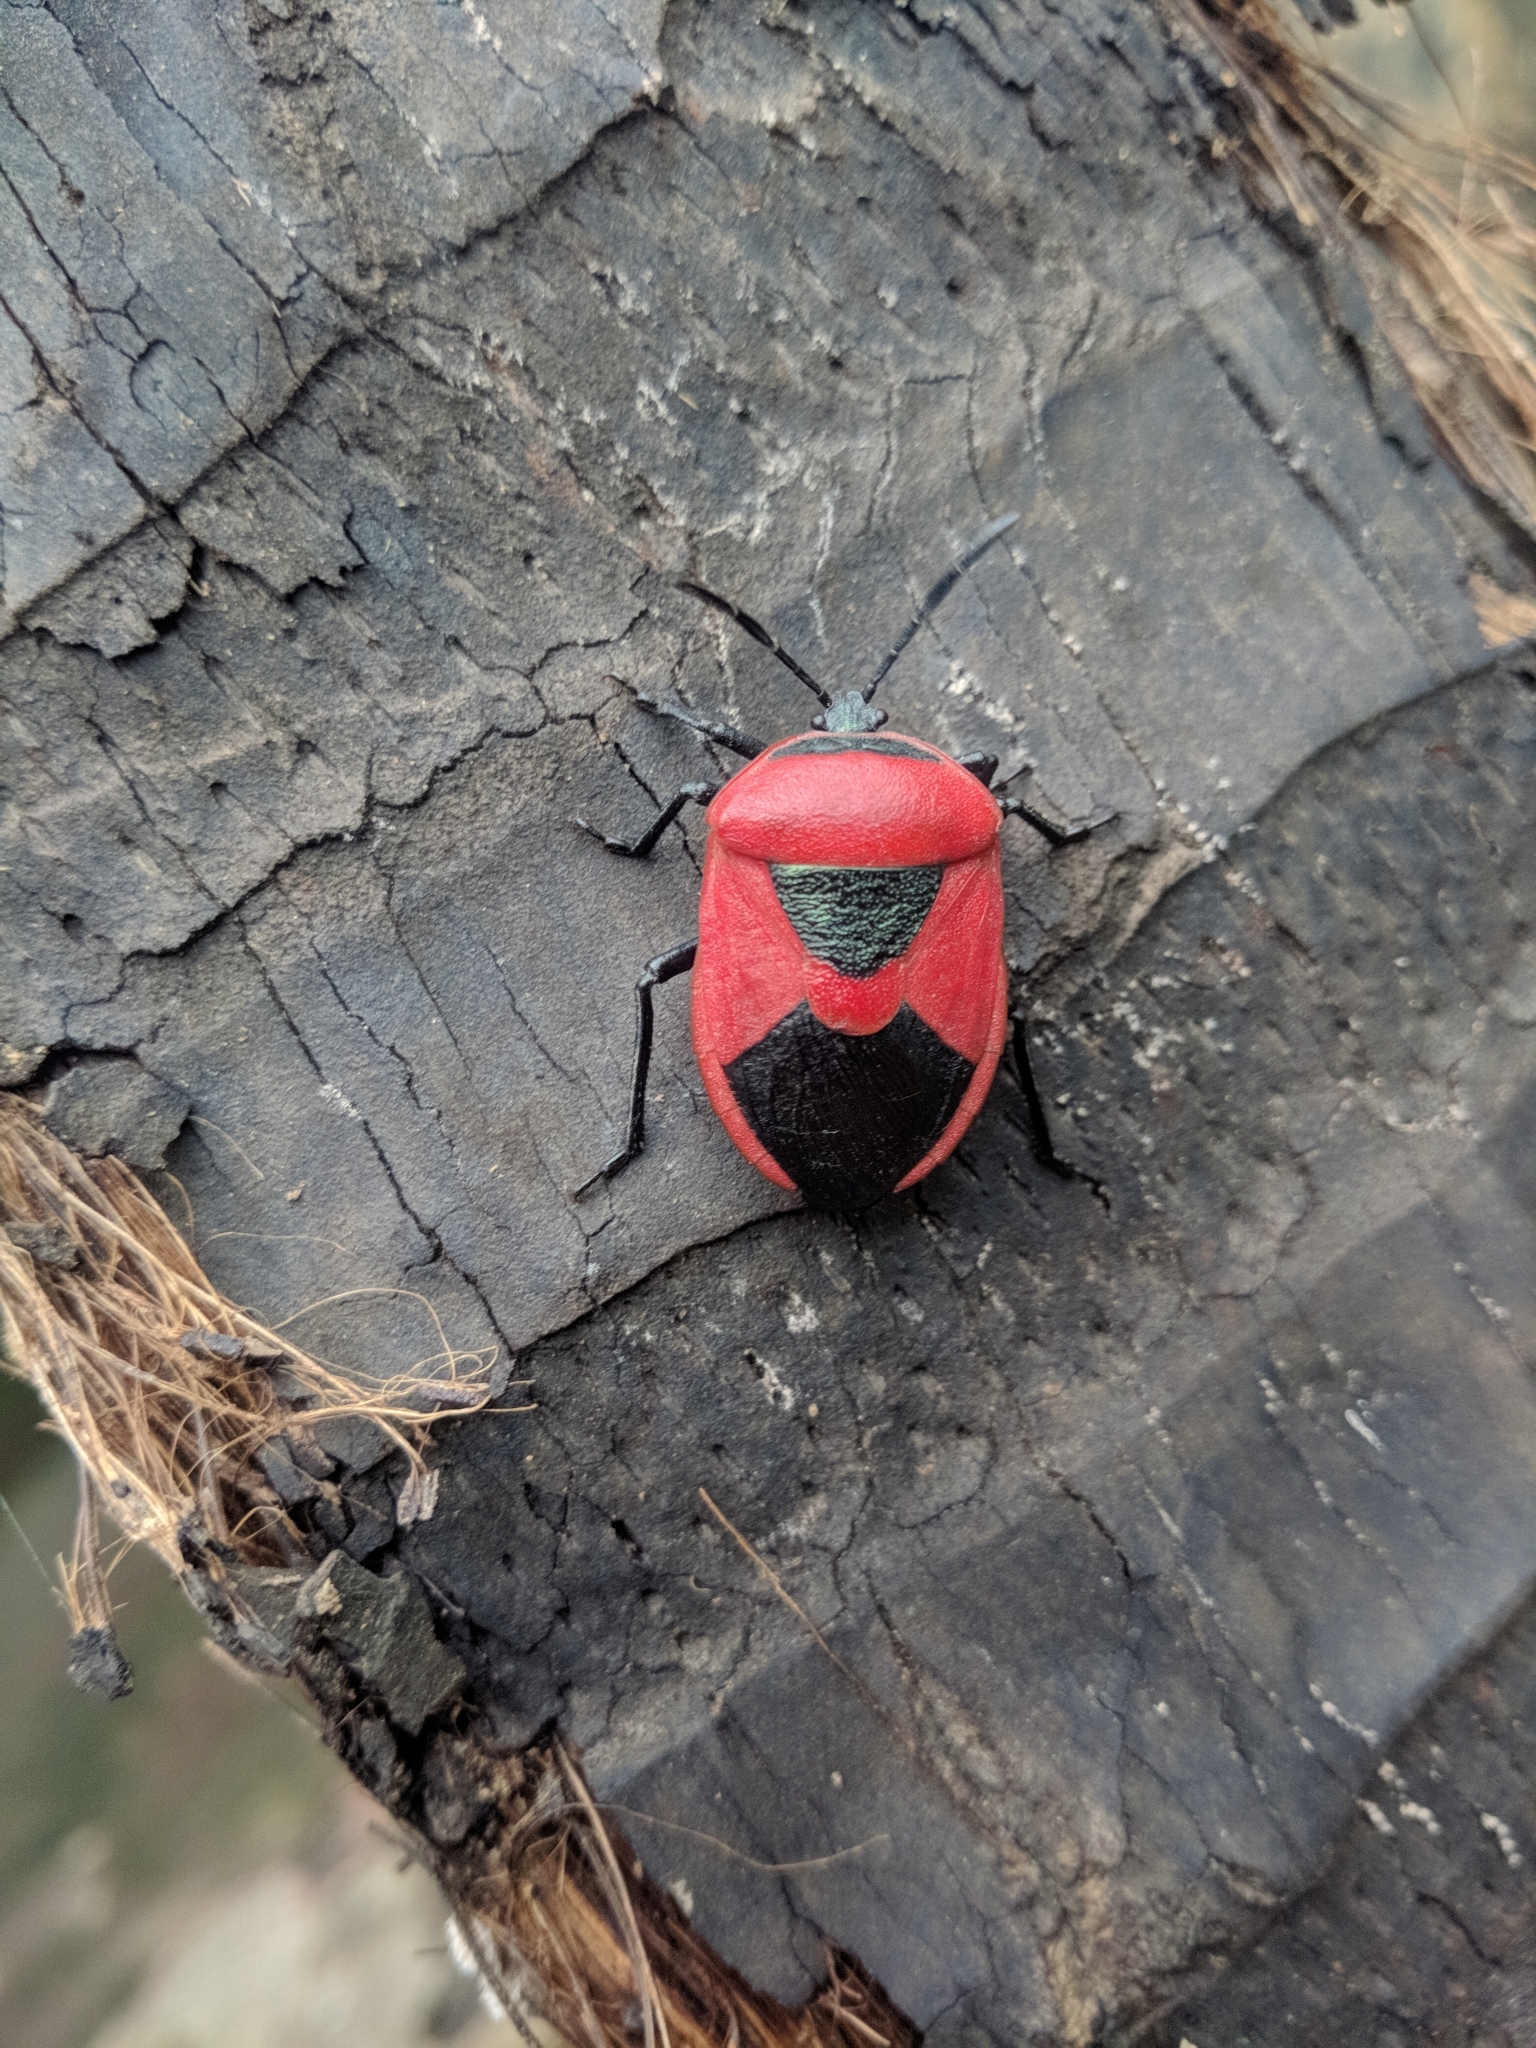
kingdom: Animalia
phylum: Arthropoda
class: Insecta
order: Hemiptera
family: Dinidoridae
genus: Coridius
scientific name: Coridius ianus
